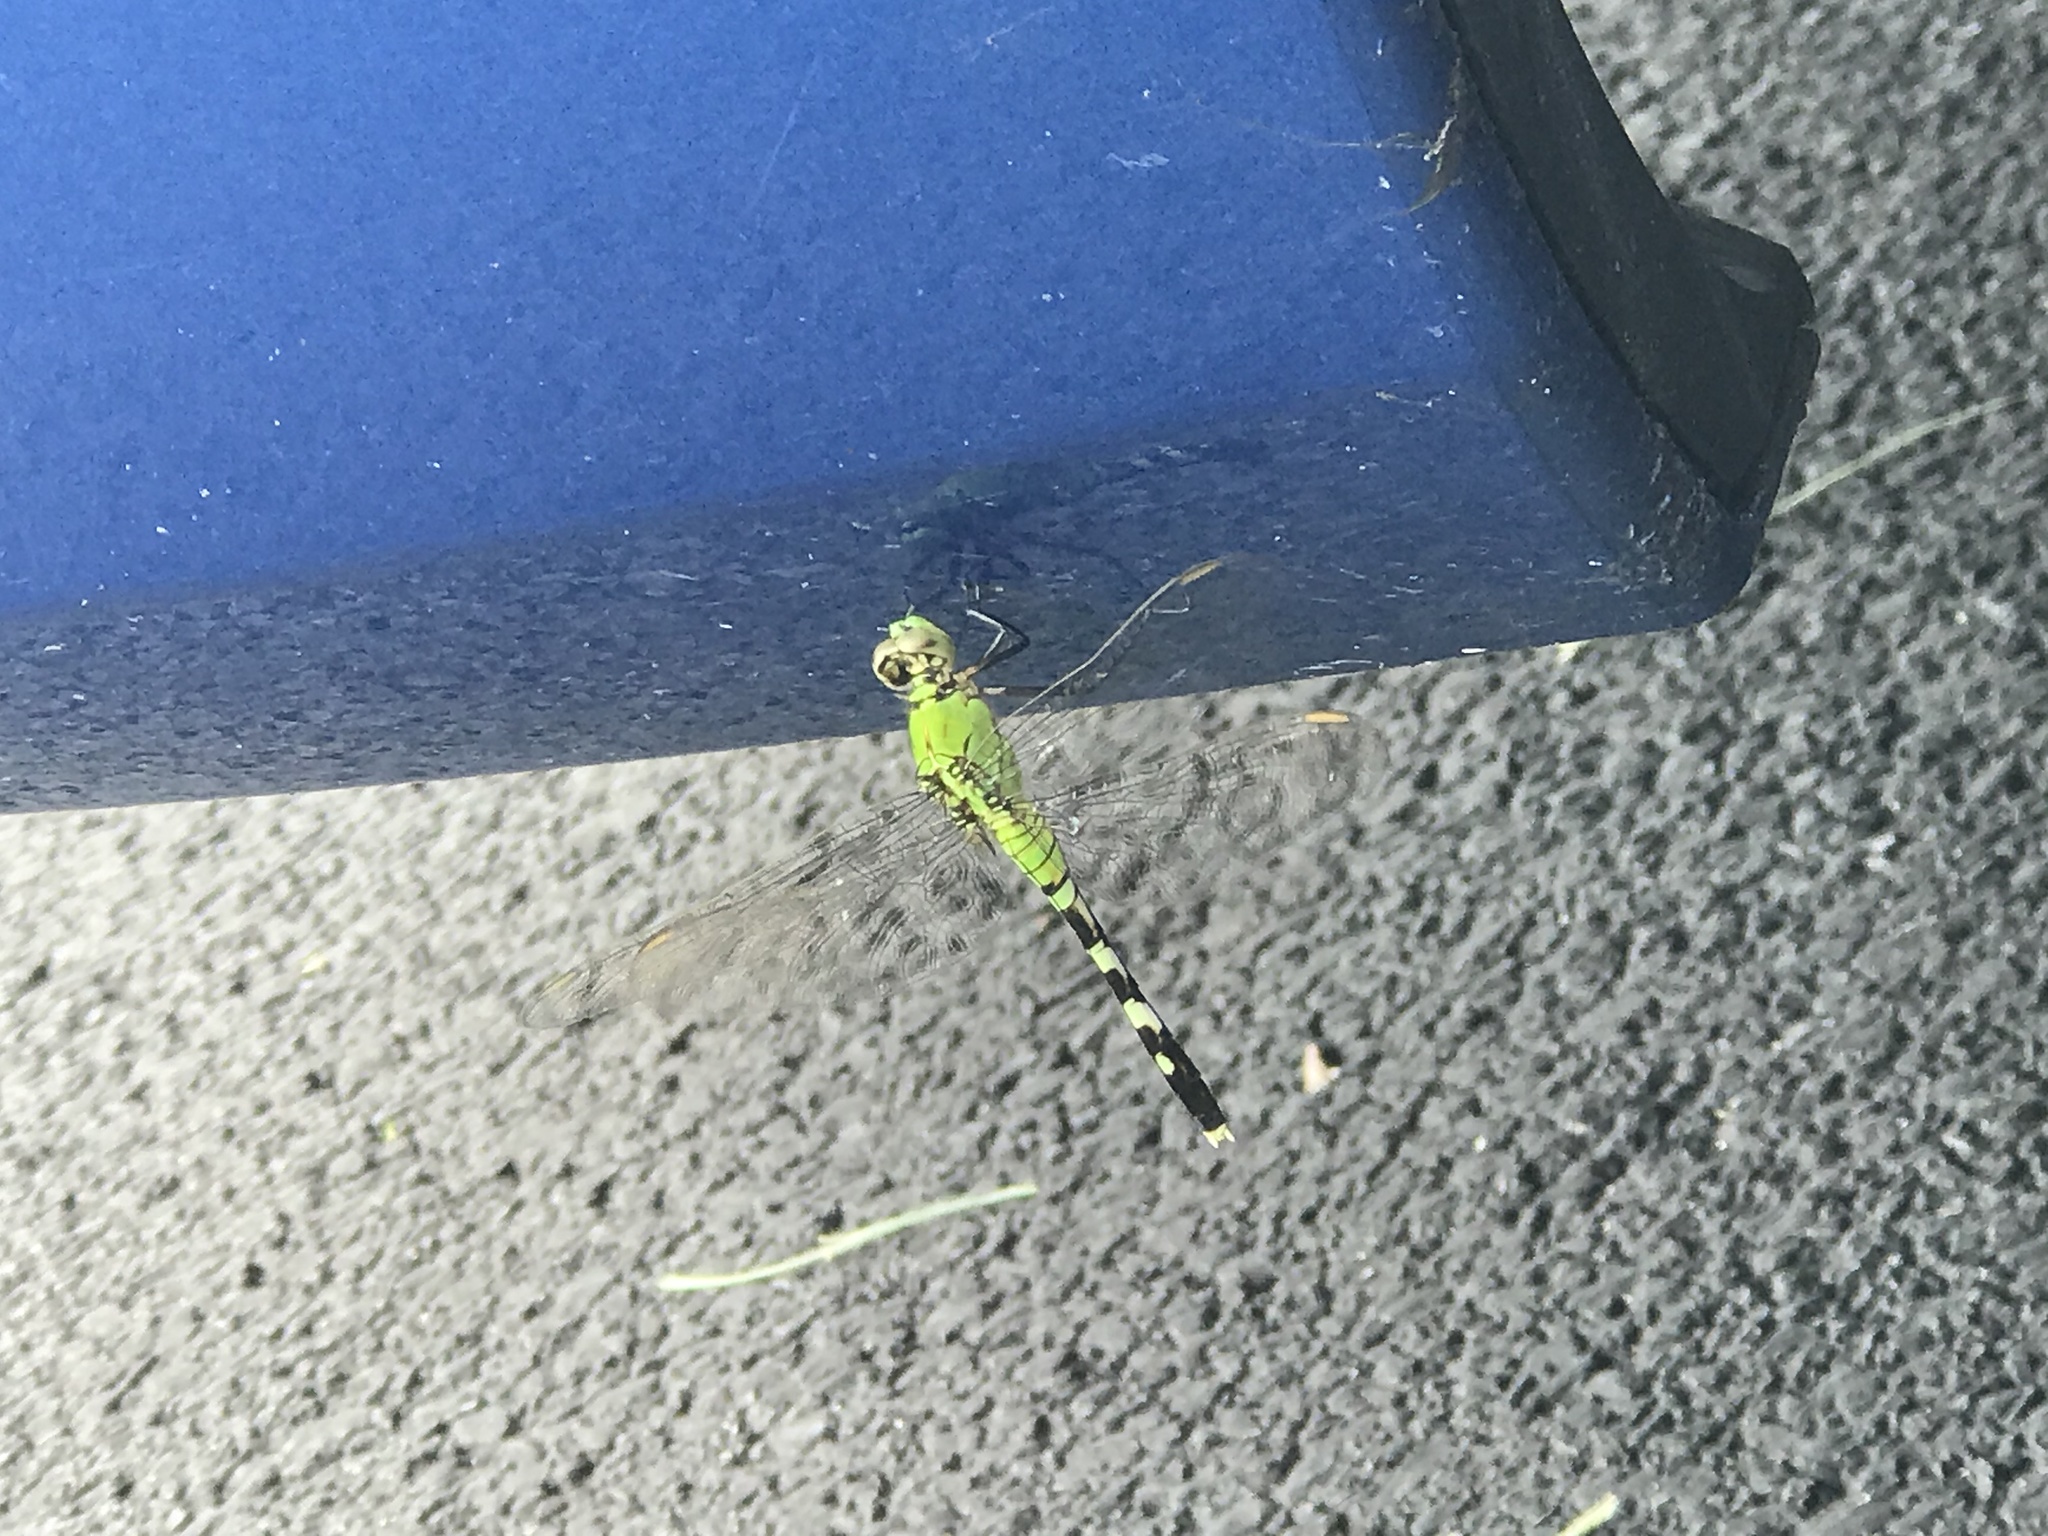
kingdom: Animalia
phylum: Arthropoda
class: Insecta
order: Odonata
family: Libellulidae
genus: Erythemis
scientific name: Erythemis simplicicollis
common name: Eastern pondhawk
